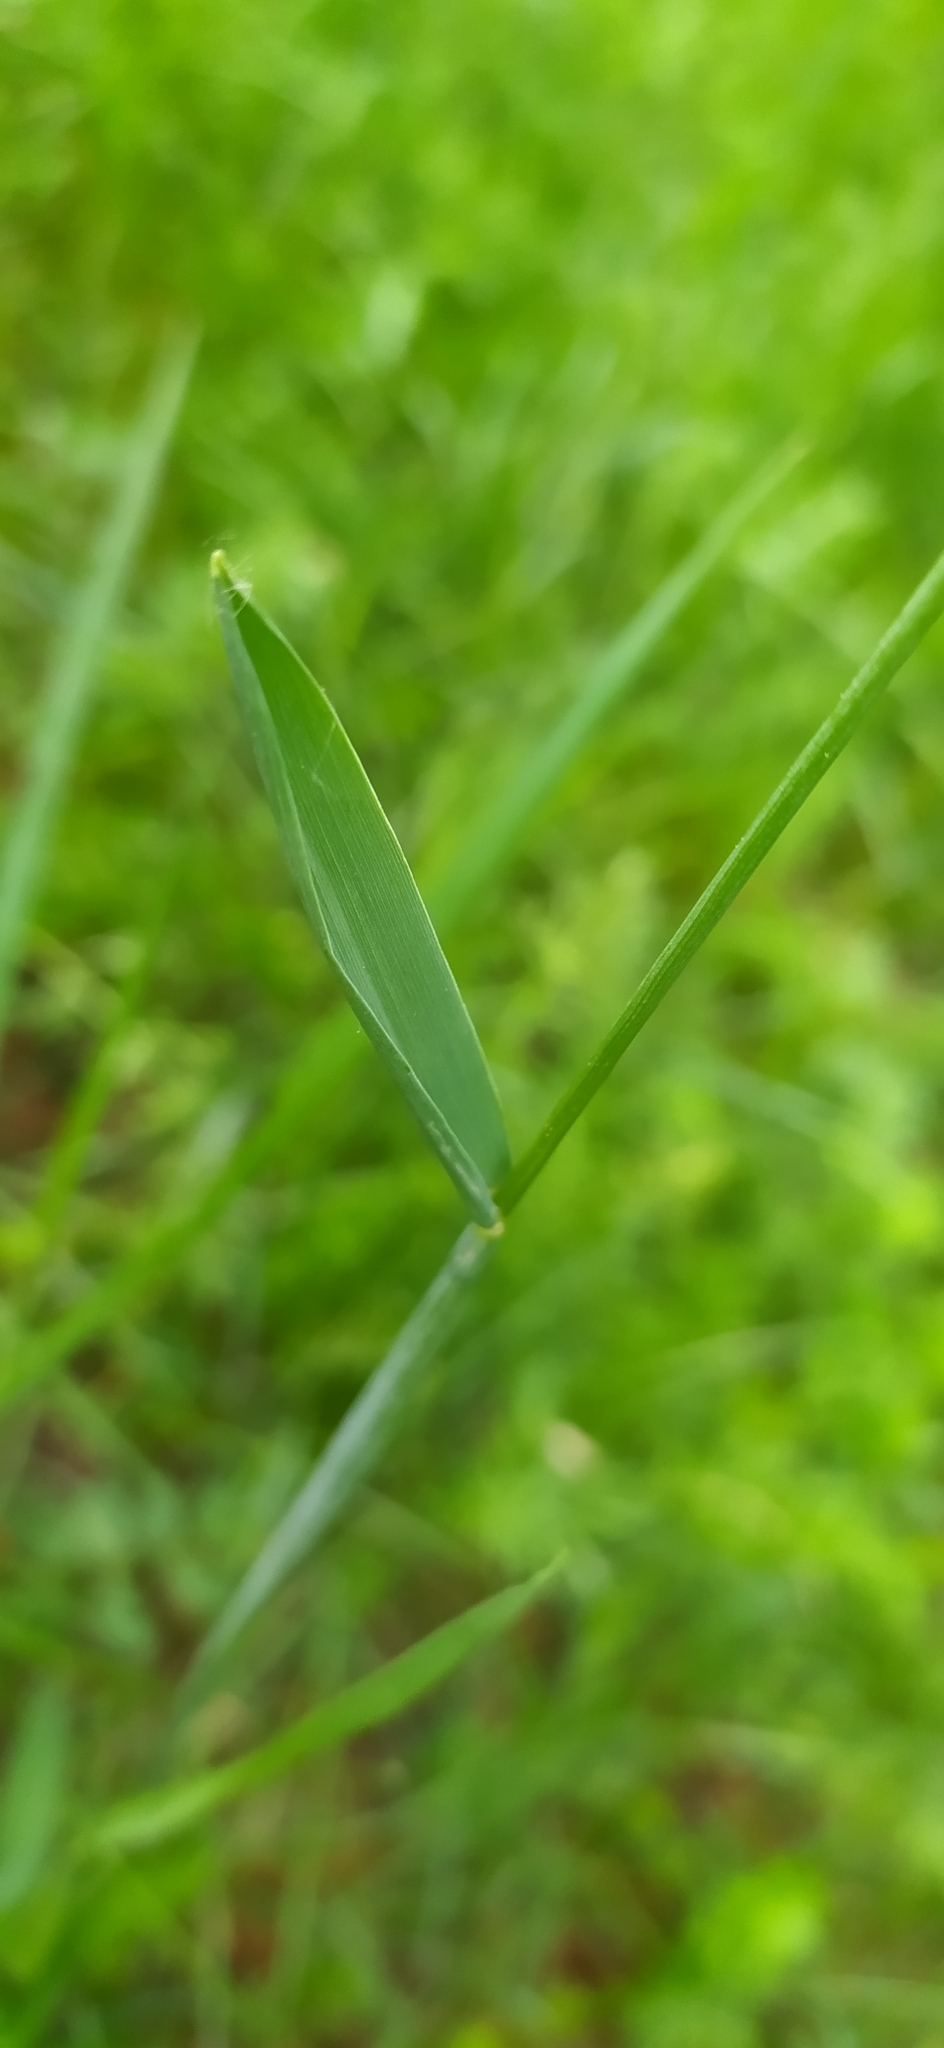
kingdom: Plantae
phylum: Tracheophyta
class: Liliopsida
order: Poales
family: Poaceae
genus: Alopecurus
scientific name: Alopecurus pratensis
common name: Meadow foxtail
